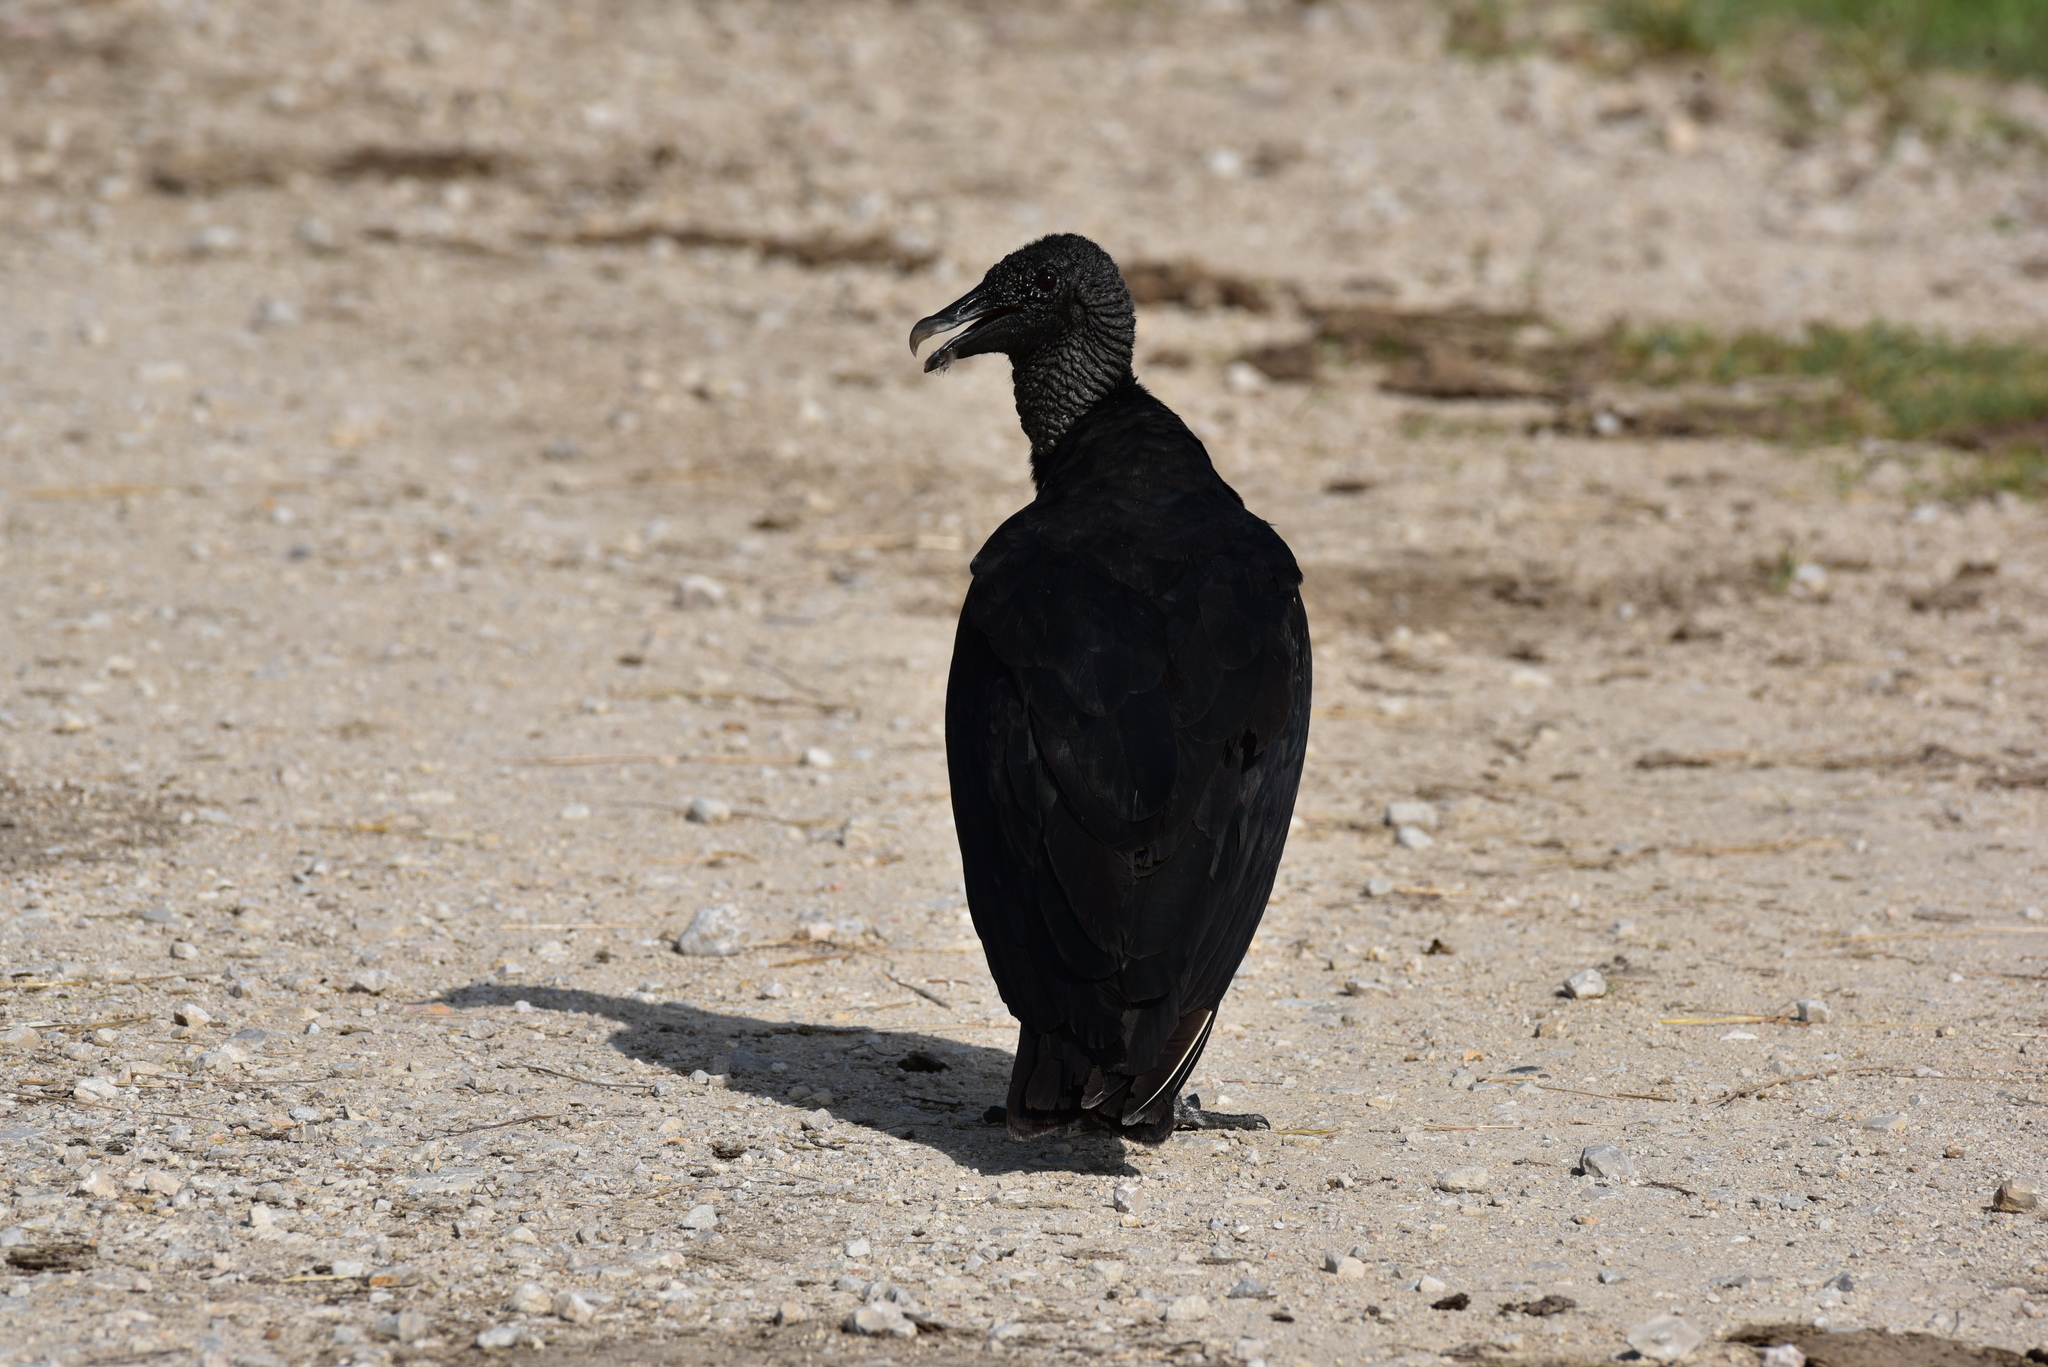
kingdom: Animalia
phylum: Chordata
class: Aves
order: Accipitriformes
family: Cathartidae
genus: Coragyps
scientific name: Coragyps atratus
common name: Black vulture
